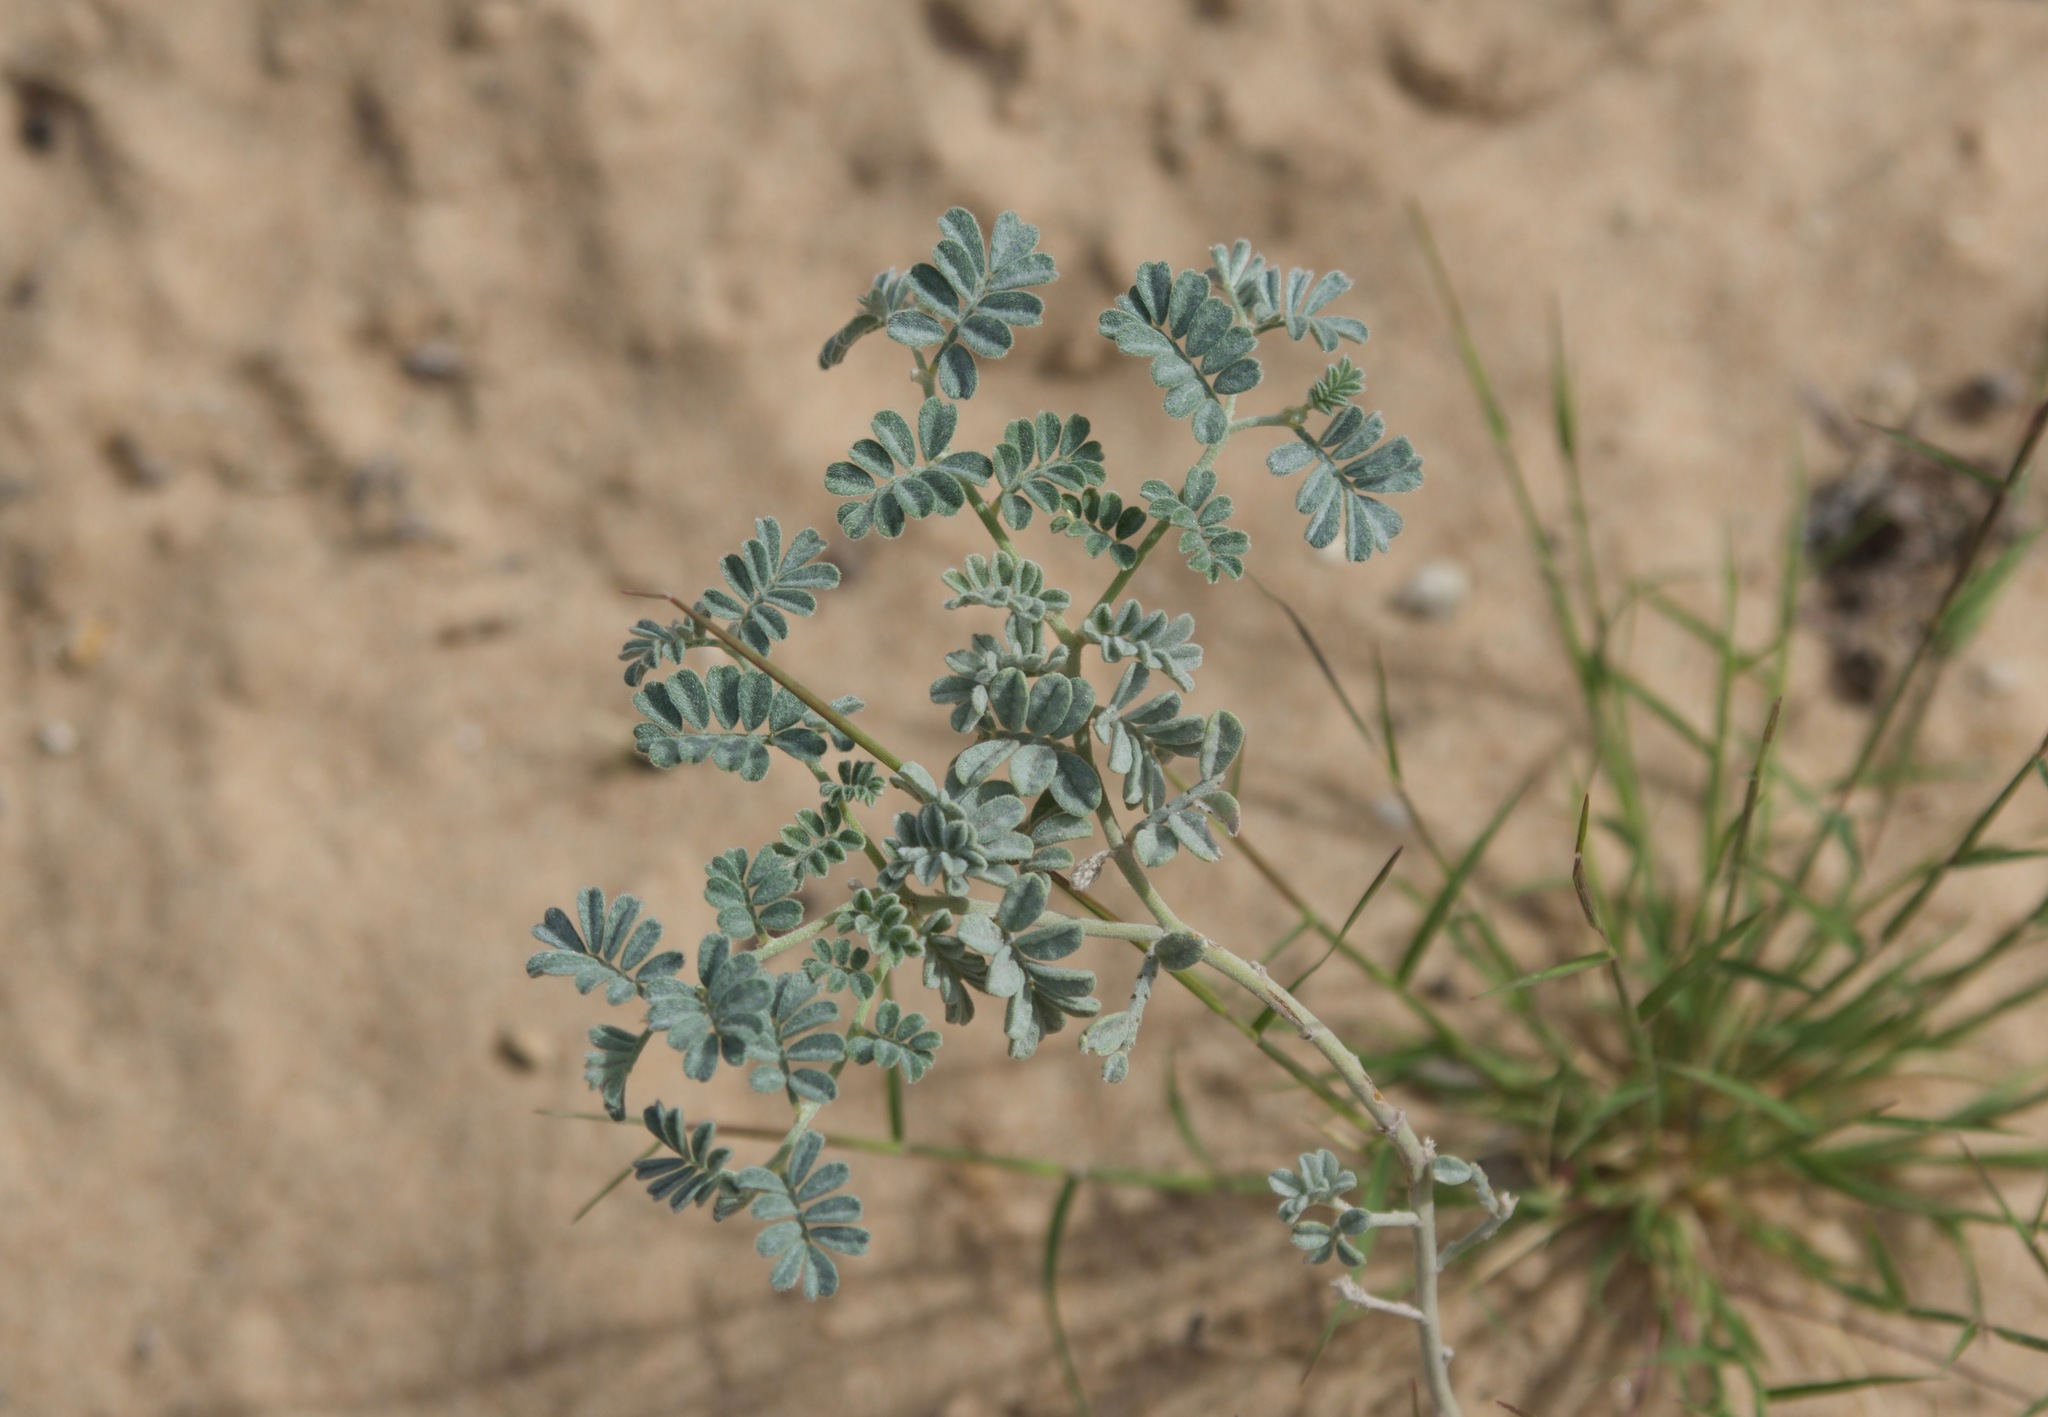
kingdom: Plantae
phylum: Tracheophyta
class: Magnoliopsida
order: Fabales
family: Fabaceae
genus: Dalea
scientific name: Dalea lanata
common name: Woolly dalea
